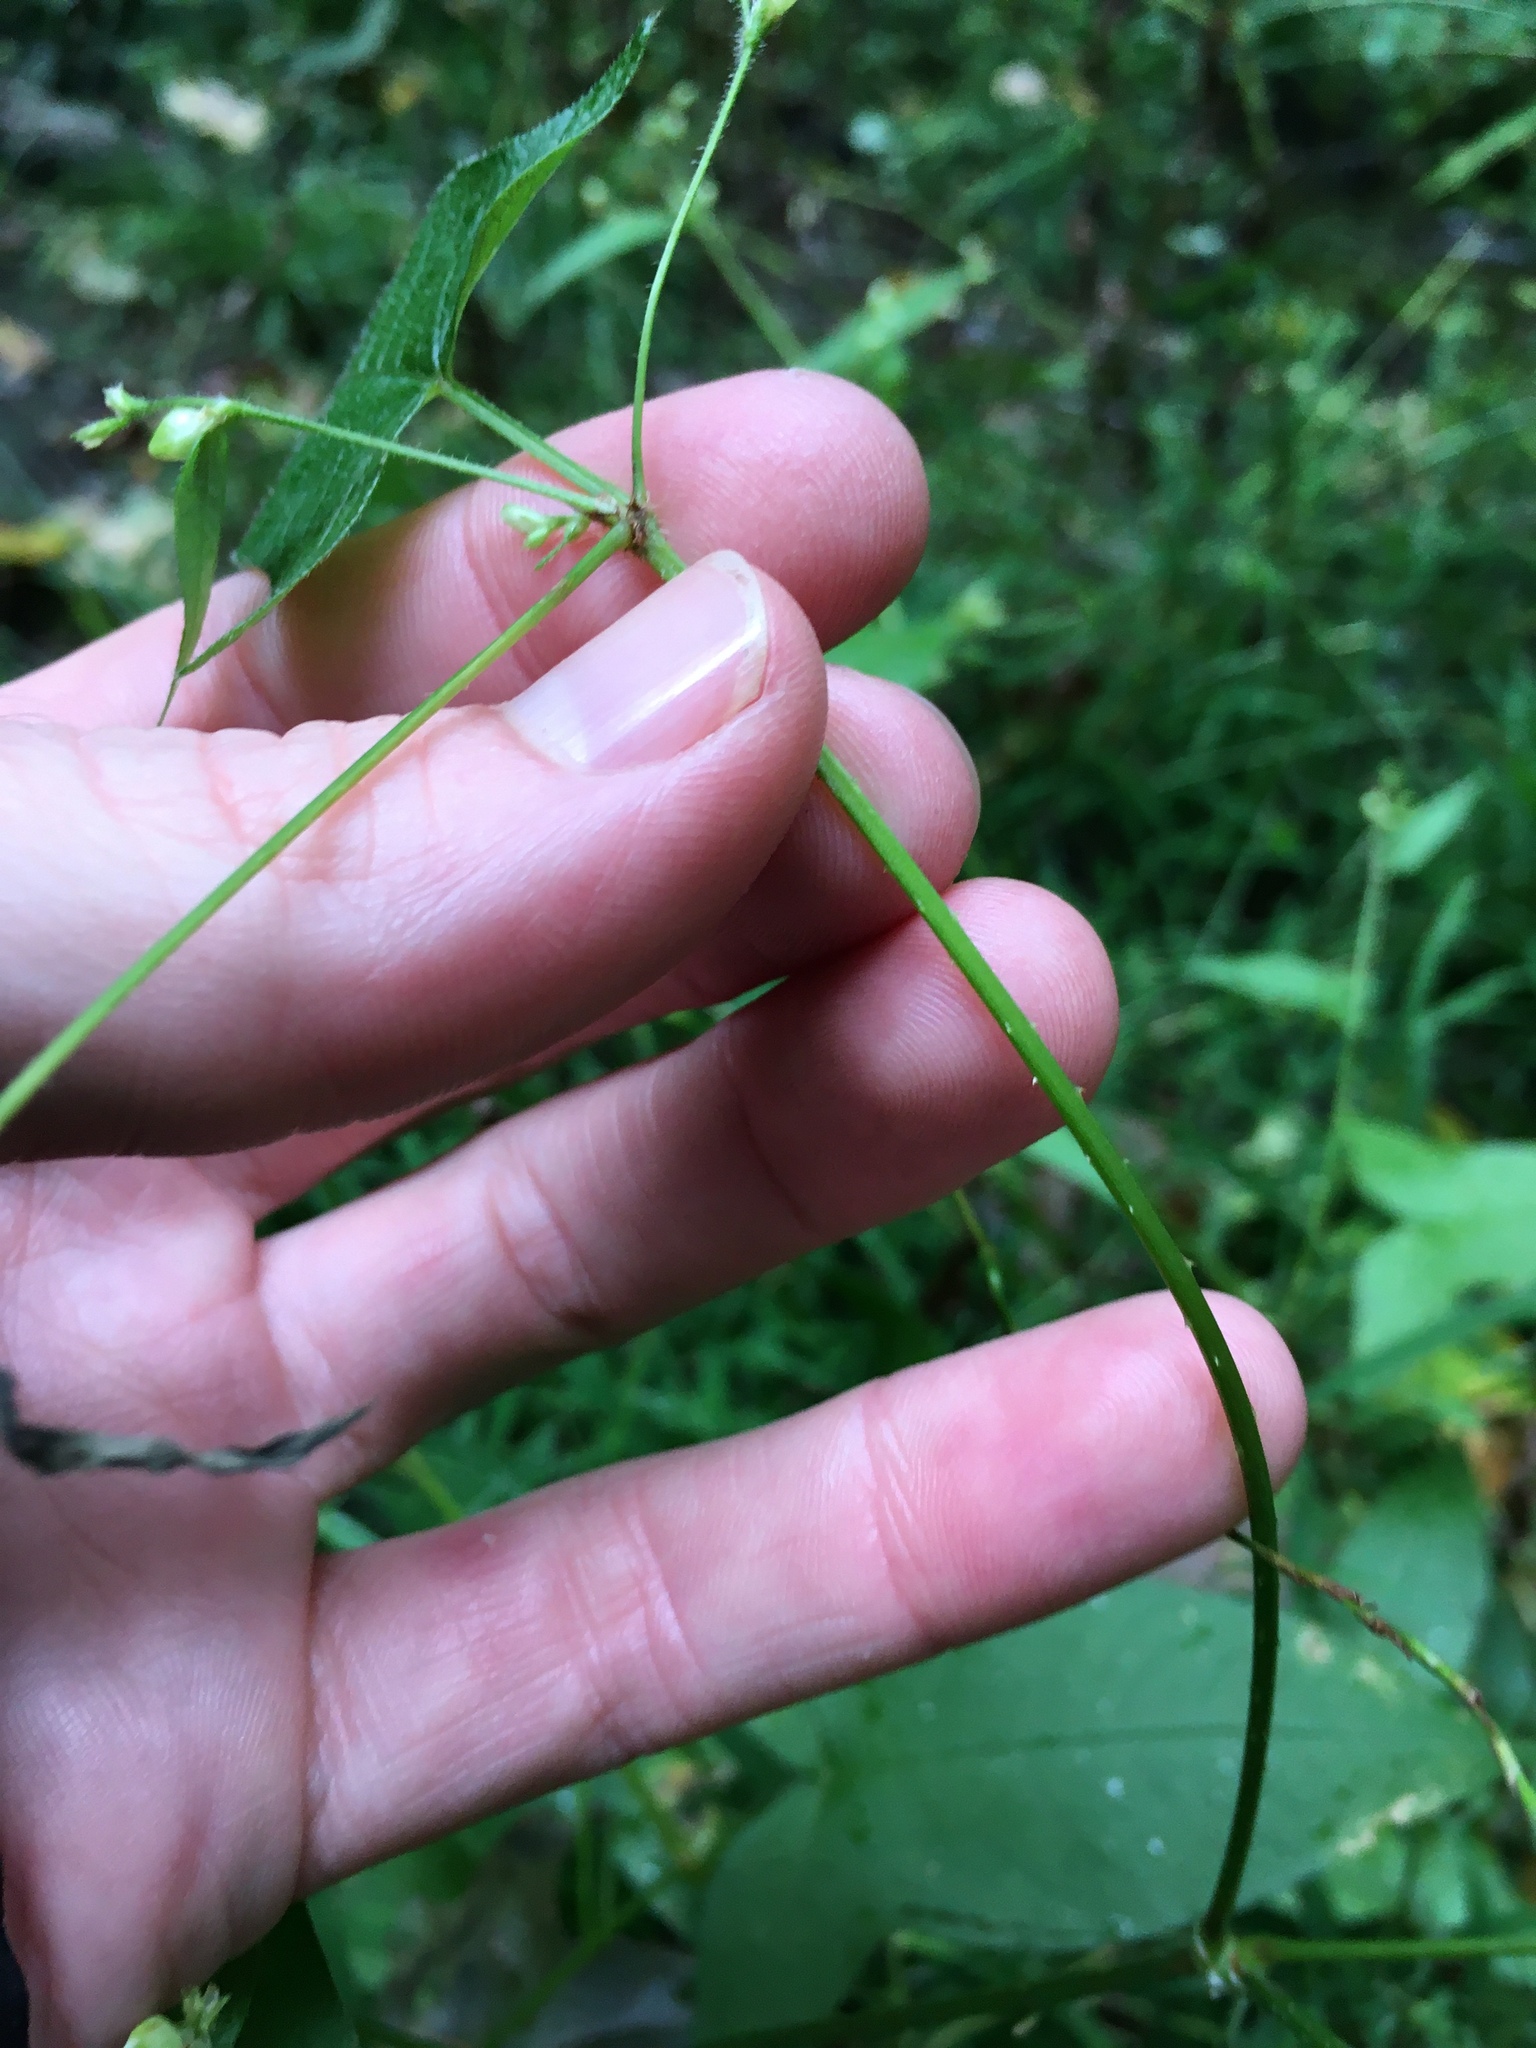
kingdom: Plantae
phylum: Tracheophyta
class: Magnoliopsida
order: Caryophyllales
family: Polygonaceae
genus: Persicaria
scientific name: Persicaria arifolia
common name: Halberd-leaved tear-thumb
